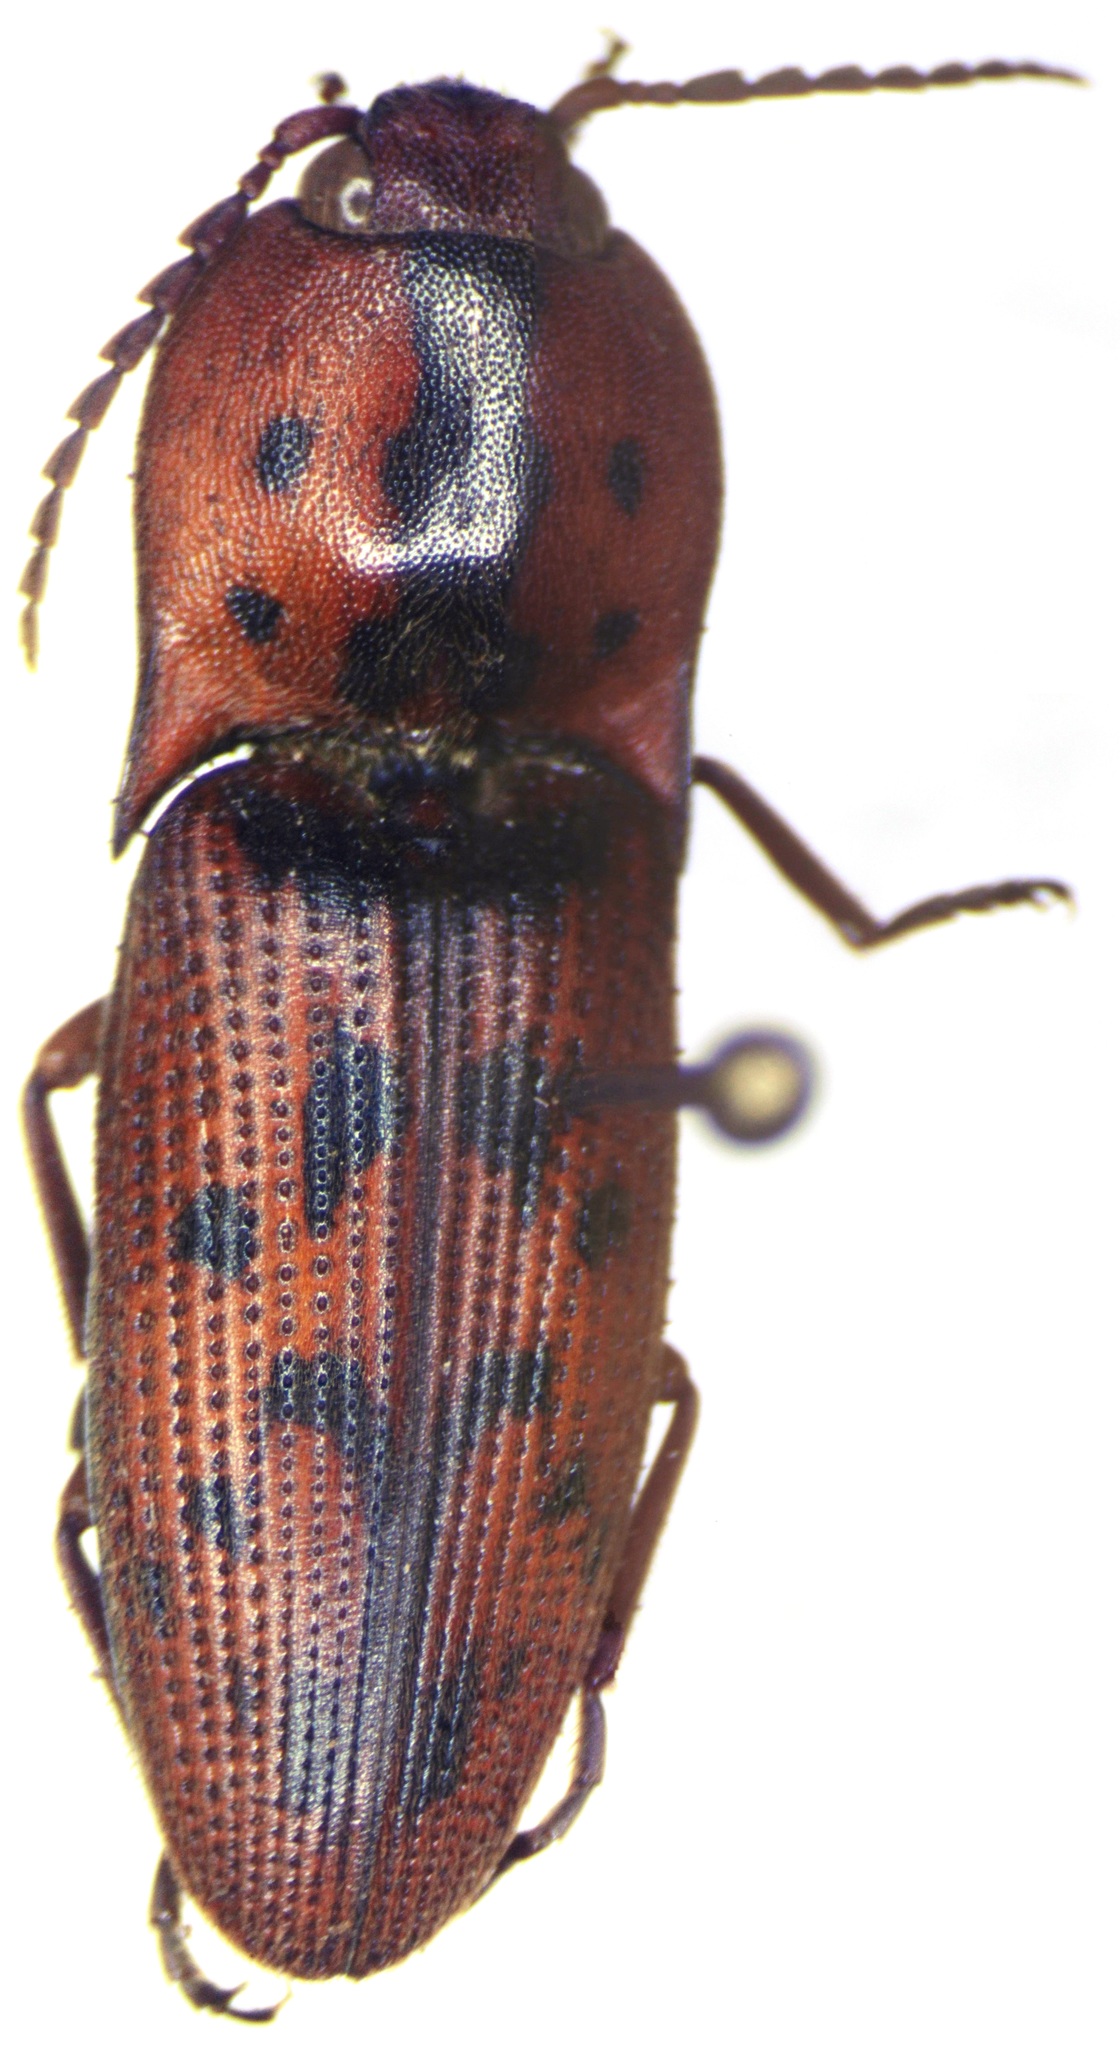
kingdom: Animalia
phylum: Arthropoda
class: Insecta
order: Coleoptera
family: Elateridae
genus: Monocrepidius
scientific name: Monocrepidius pilatei
